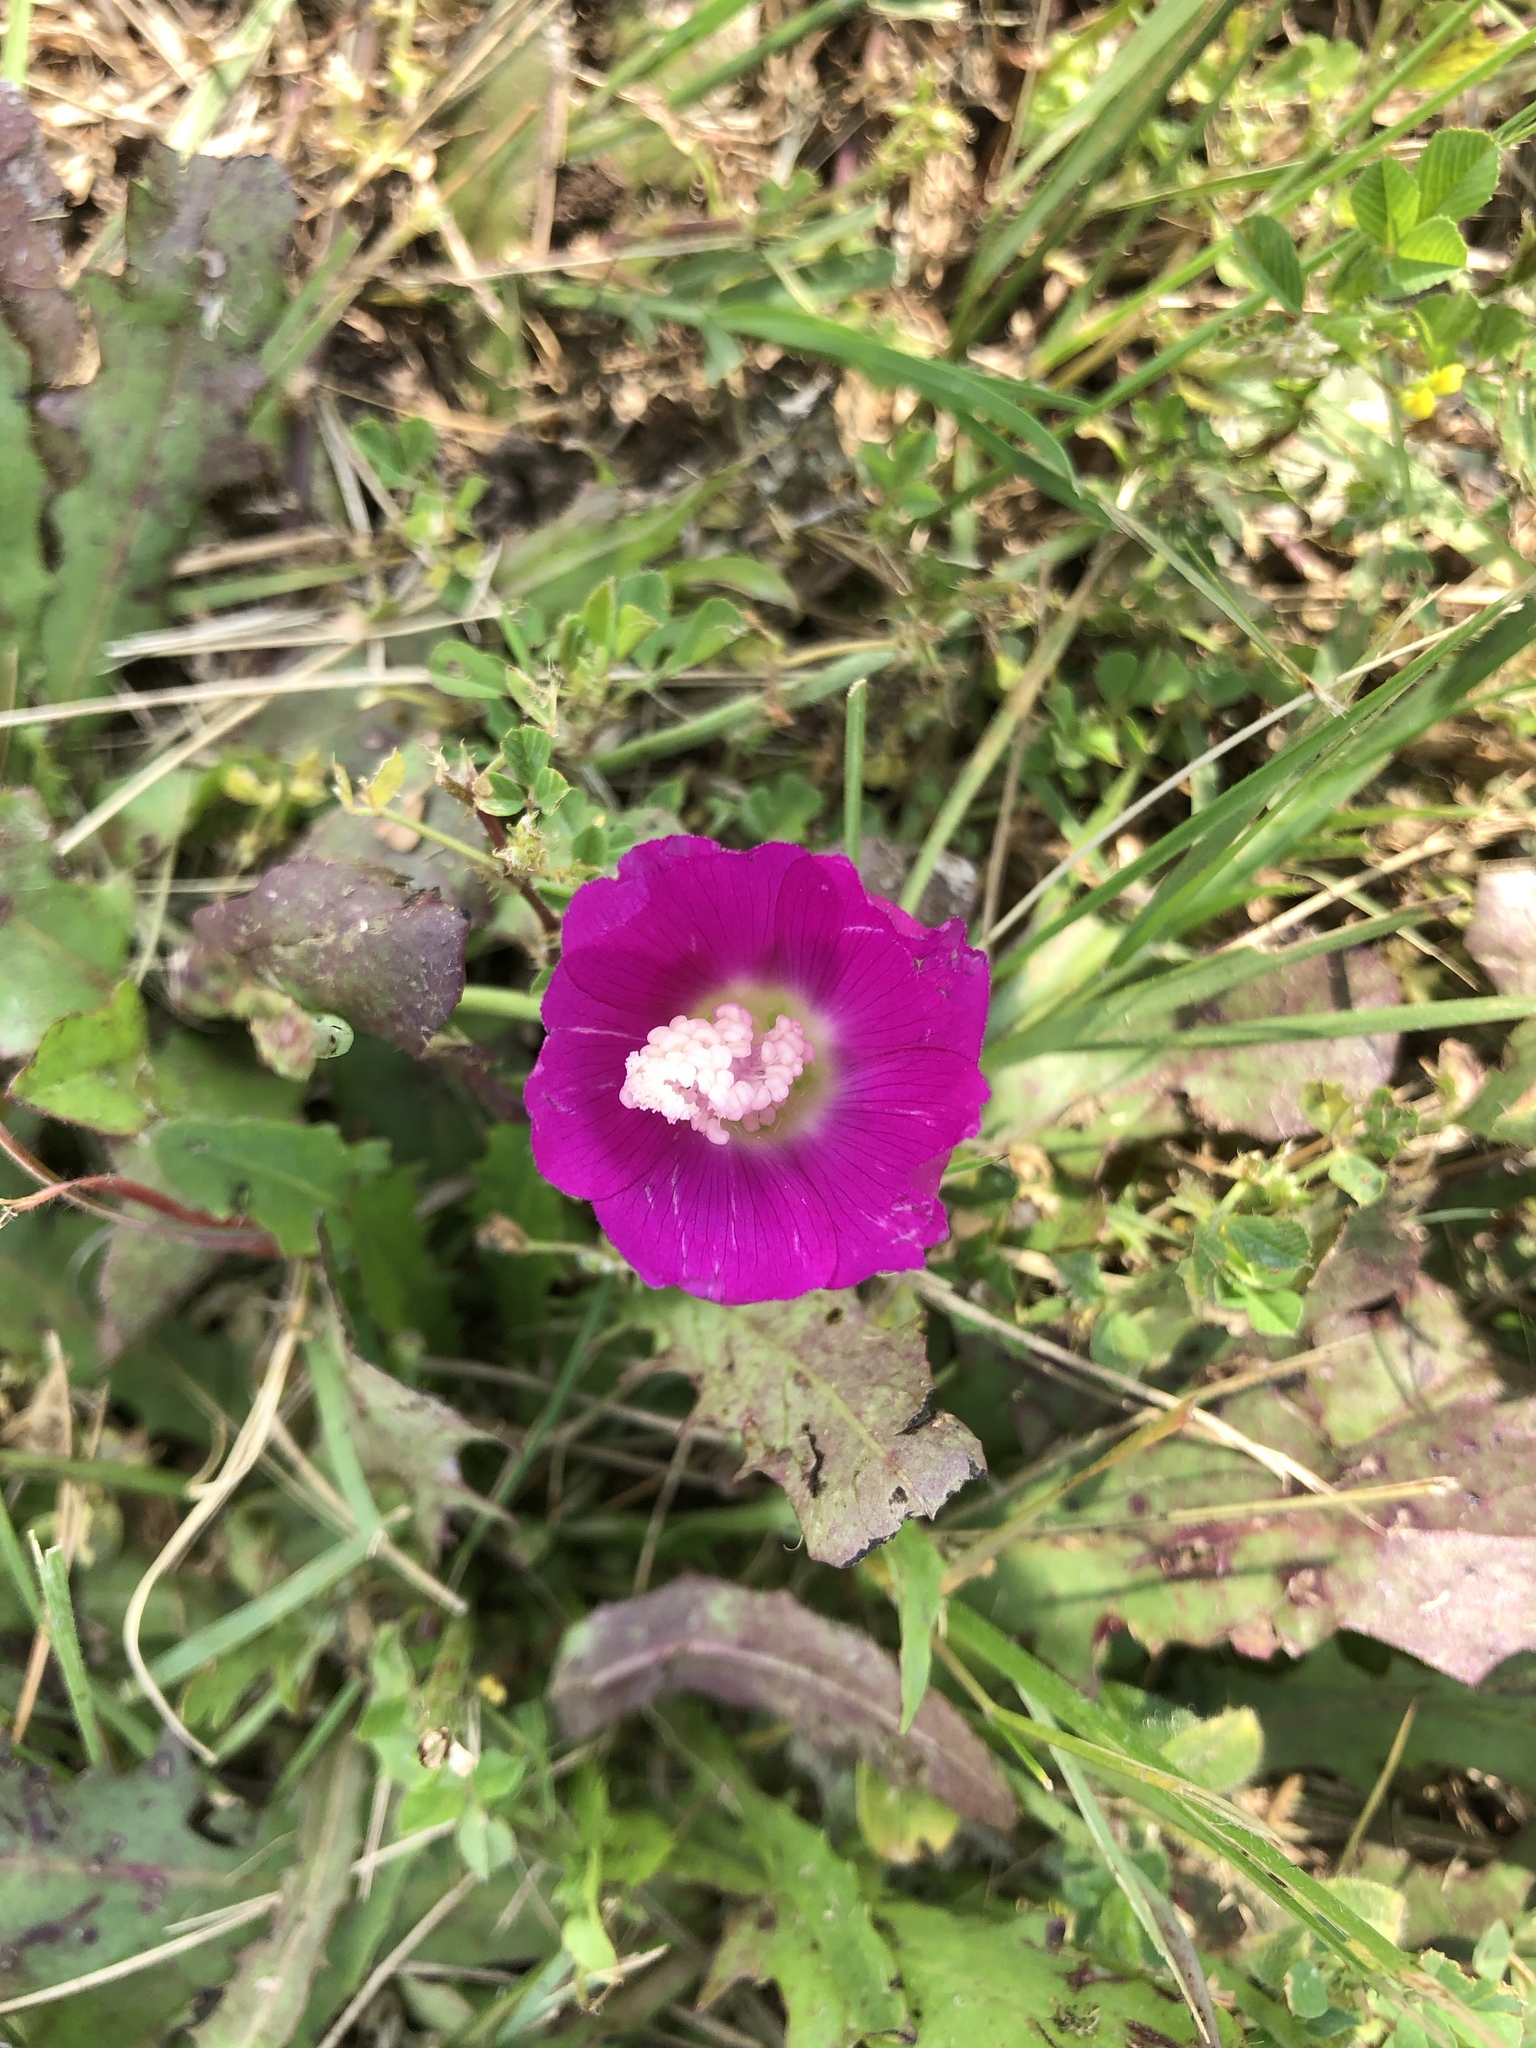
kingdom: Plantae
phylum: Tracheophyta
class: Magnoliopsida
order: Malvales
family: Malvaceae
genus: Callirhoe
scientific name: Callirhoe involucrata
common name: Purple poppy-mallow
